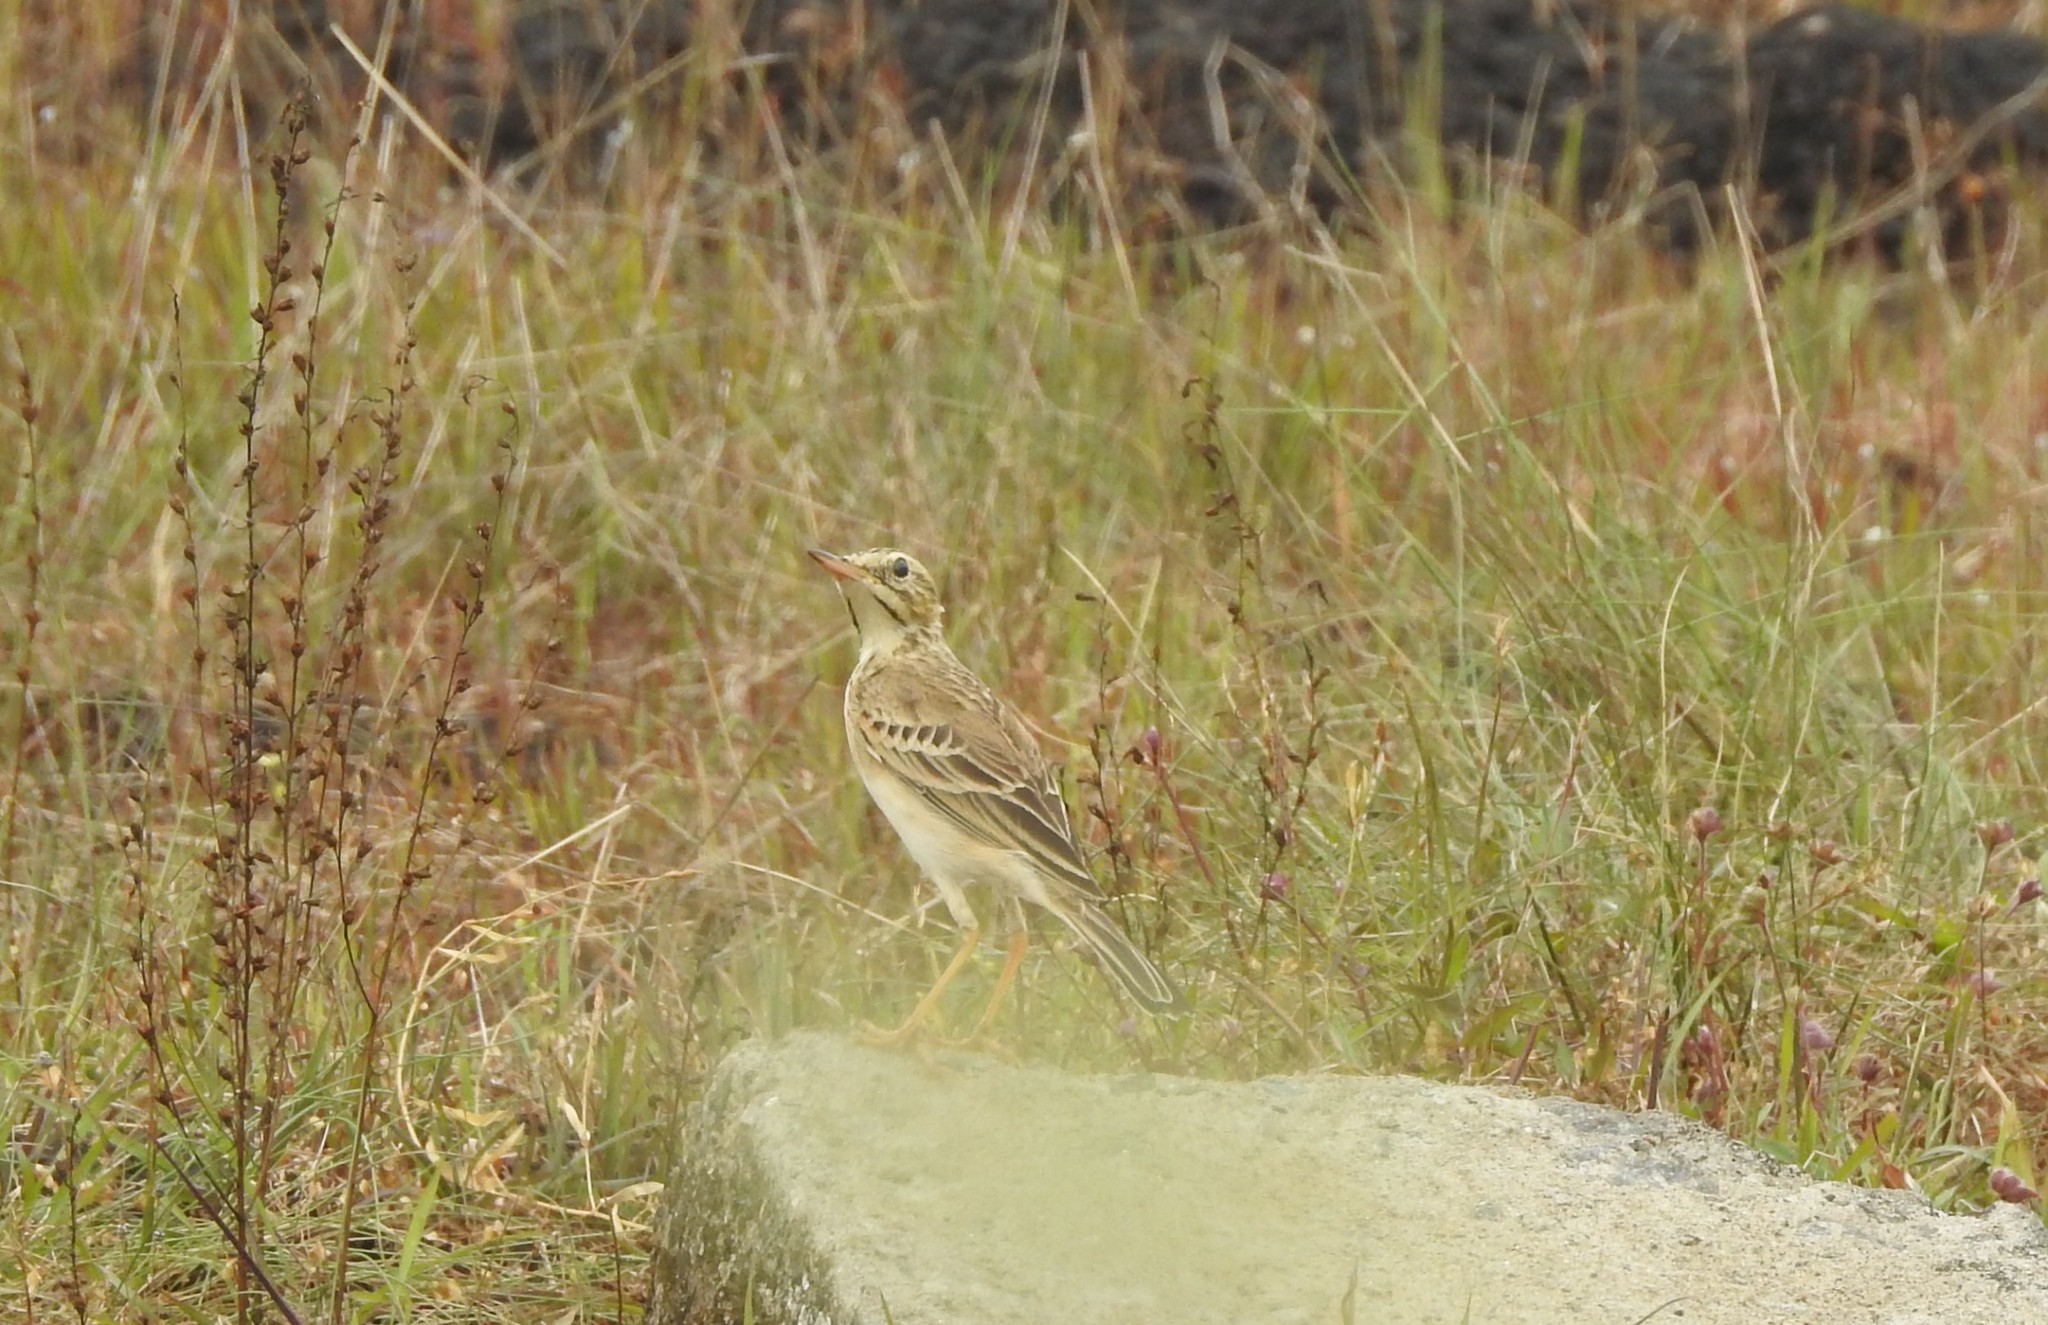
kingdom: Animalia
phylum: Chordata
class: Aves
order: Passeriformes
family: Motacillidae
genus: Anthus
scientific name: Anthus rufulus
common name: Paddyfield pipit
